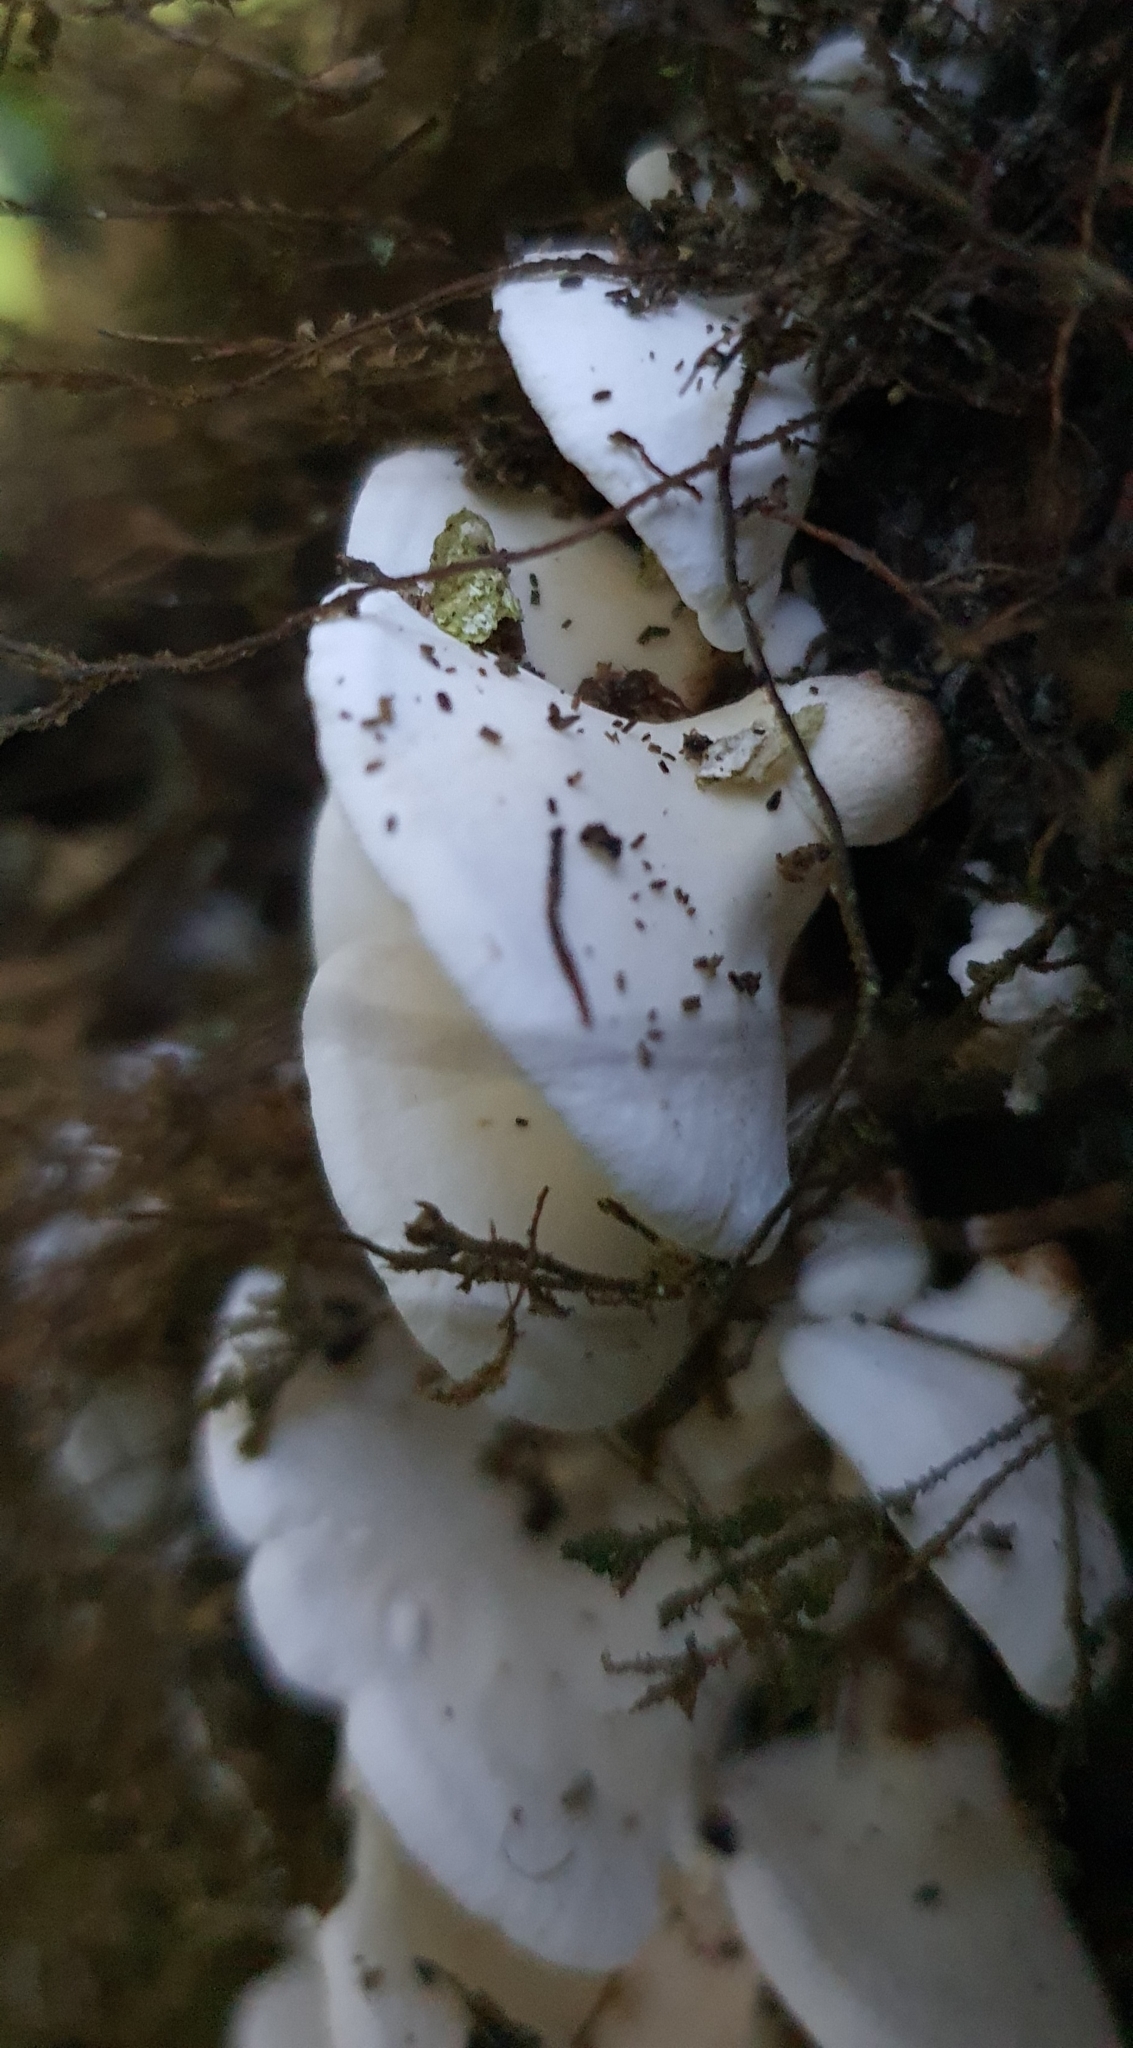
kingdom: Fungi
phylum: Basidiomycota
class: Agaricomycetes
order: Polyporales
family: Irpicaceae
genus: Gloeoporus
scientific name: Gloeoporus phlebophorus
